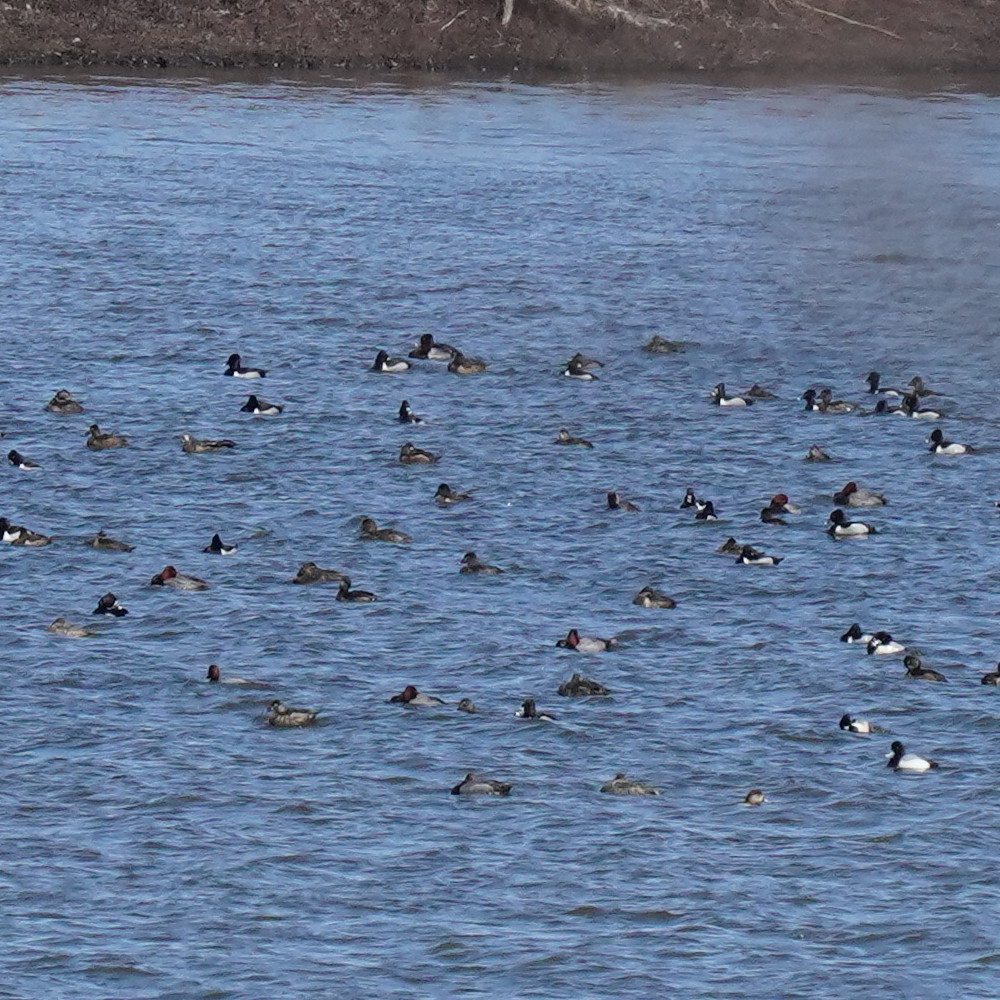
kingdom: Animalia
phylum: Chordata
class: Aves
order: Anseriformes
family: Anatidae
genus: Aythya
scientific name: Aythya americana
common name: Redhead
